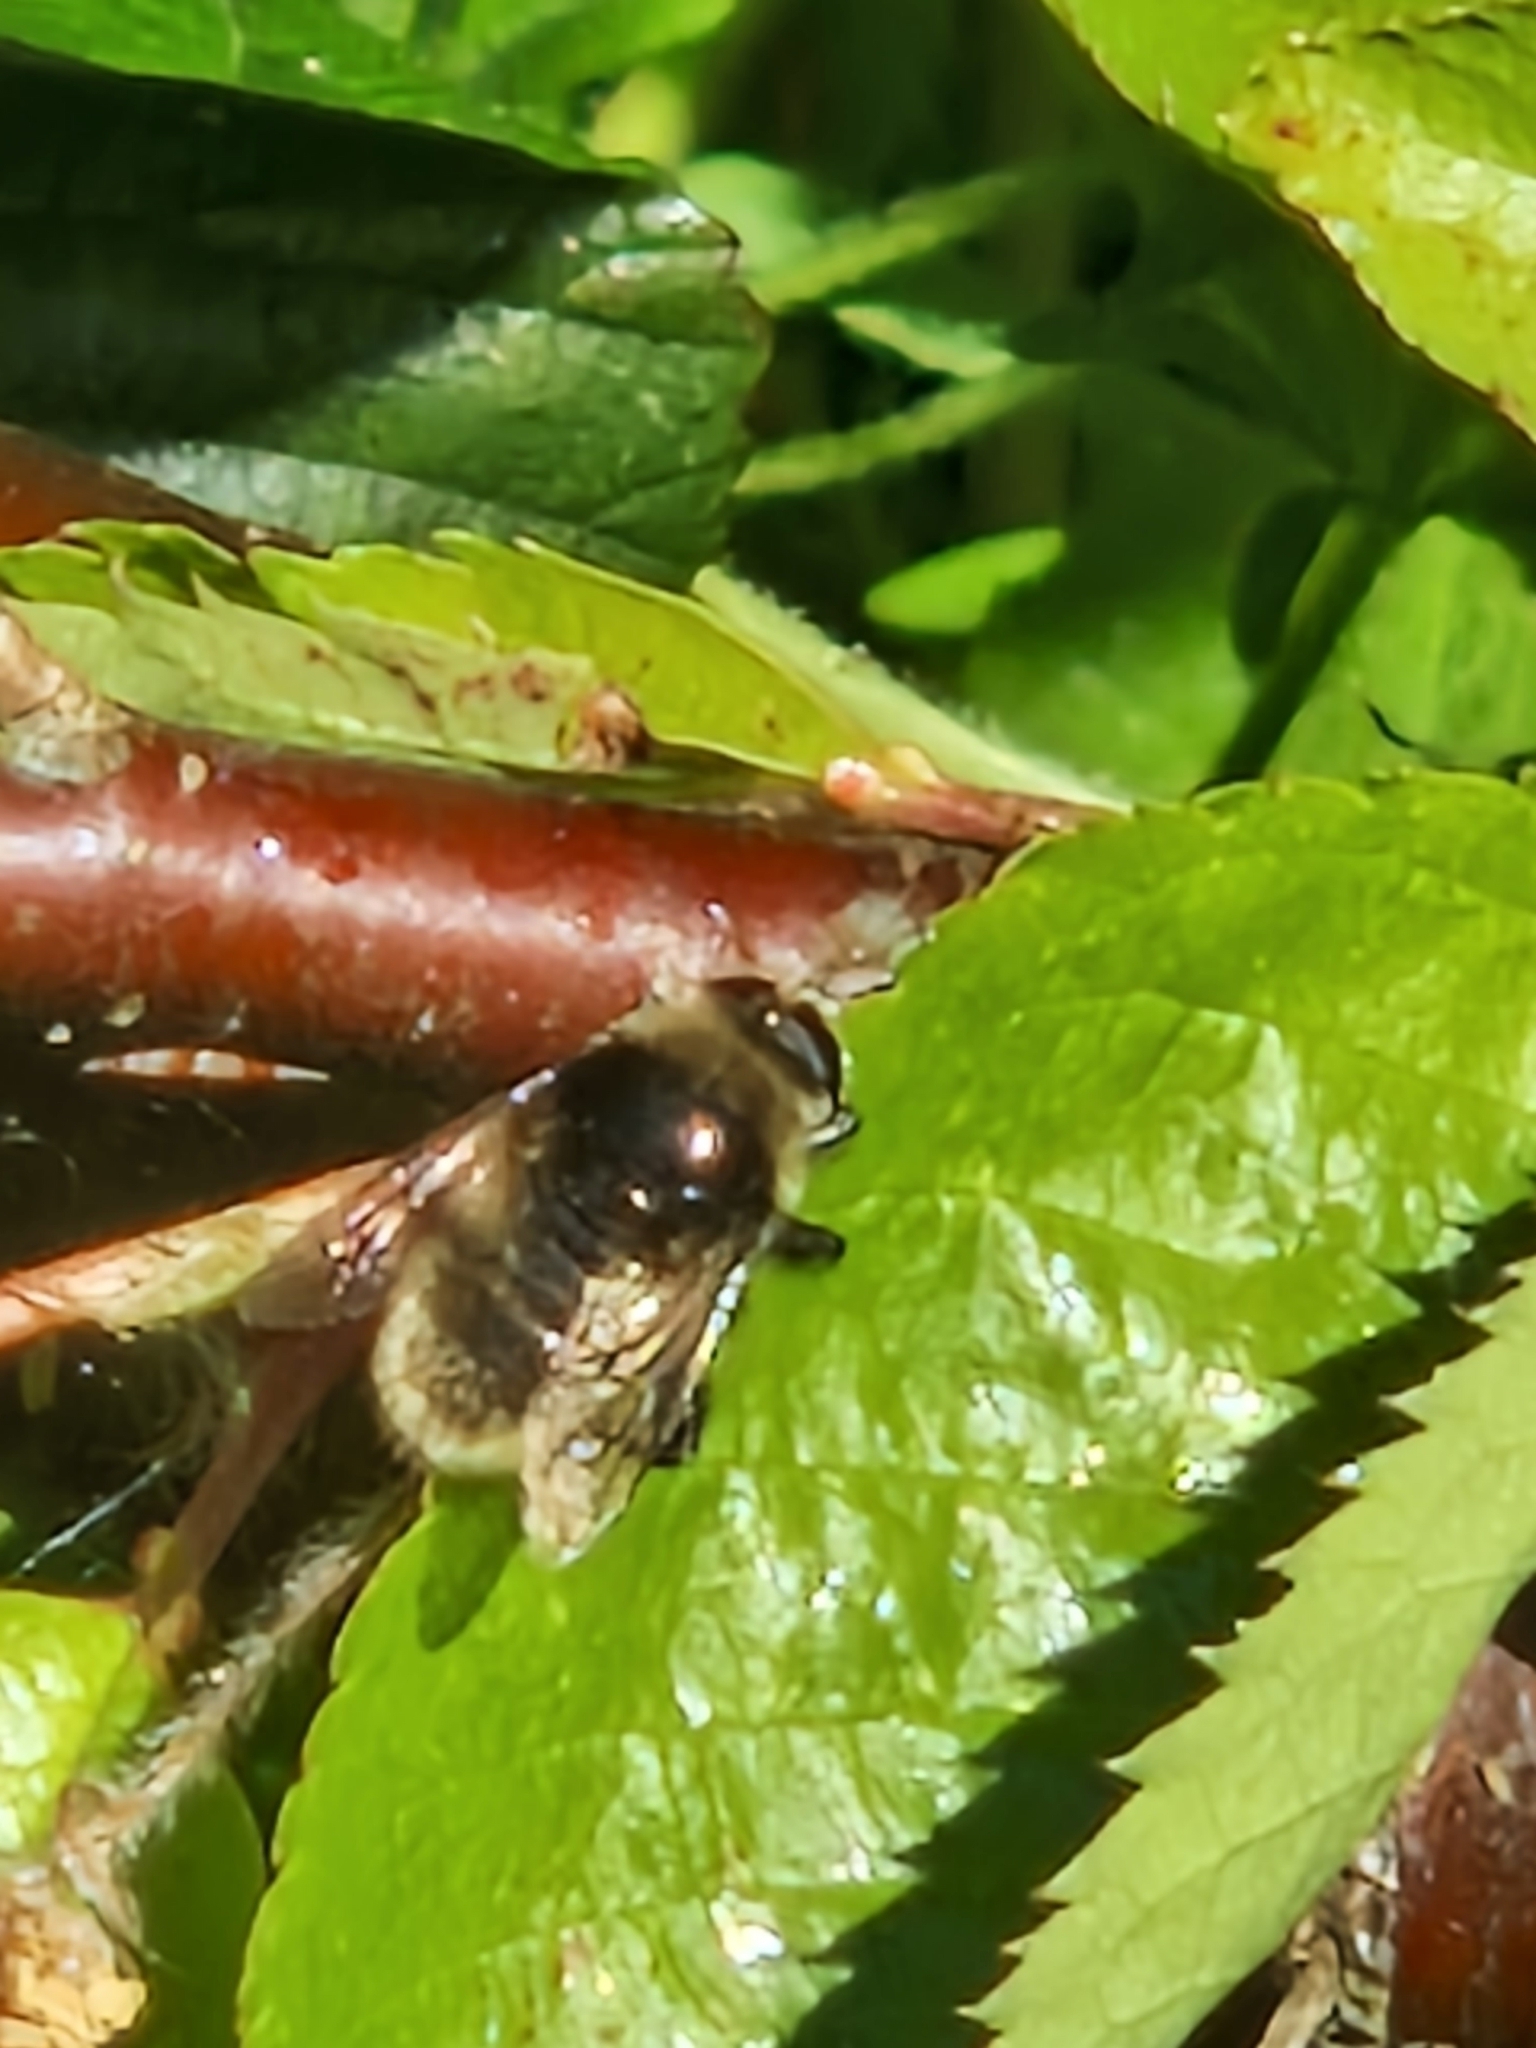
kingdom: Animalia
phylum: Arthropoda
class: Insecta
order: Diptera
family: Syrphidae
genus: Merodon
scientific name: Merodon equestris
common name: Greater bulb-fly
